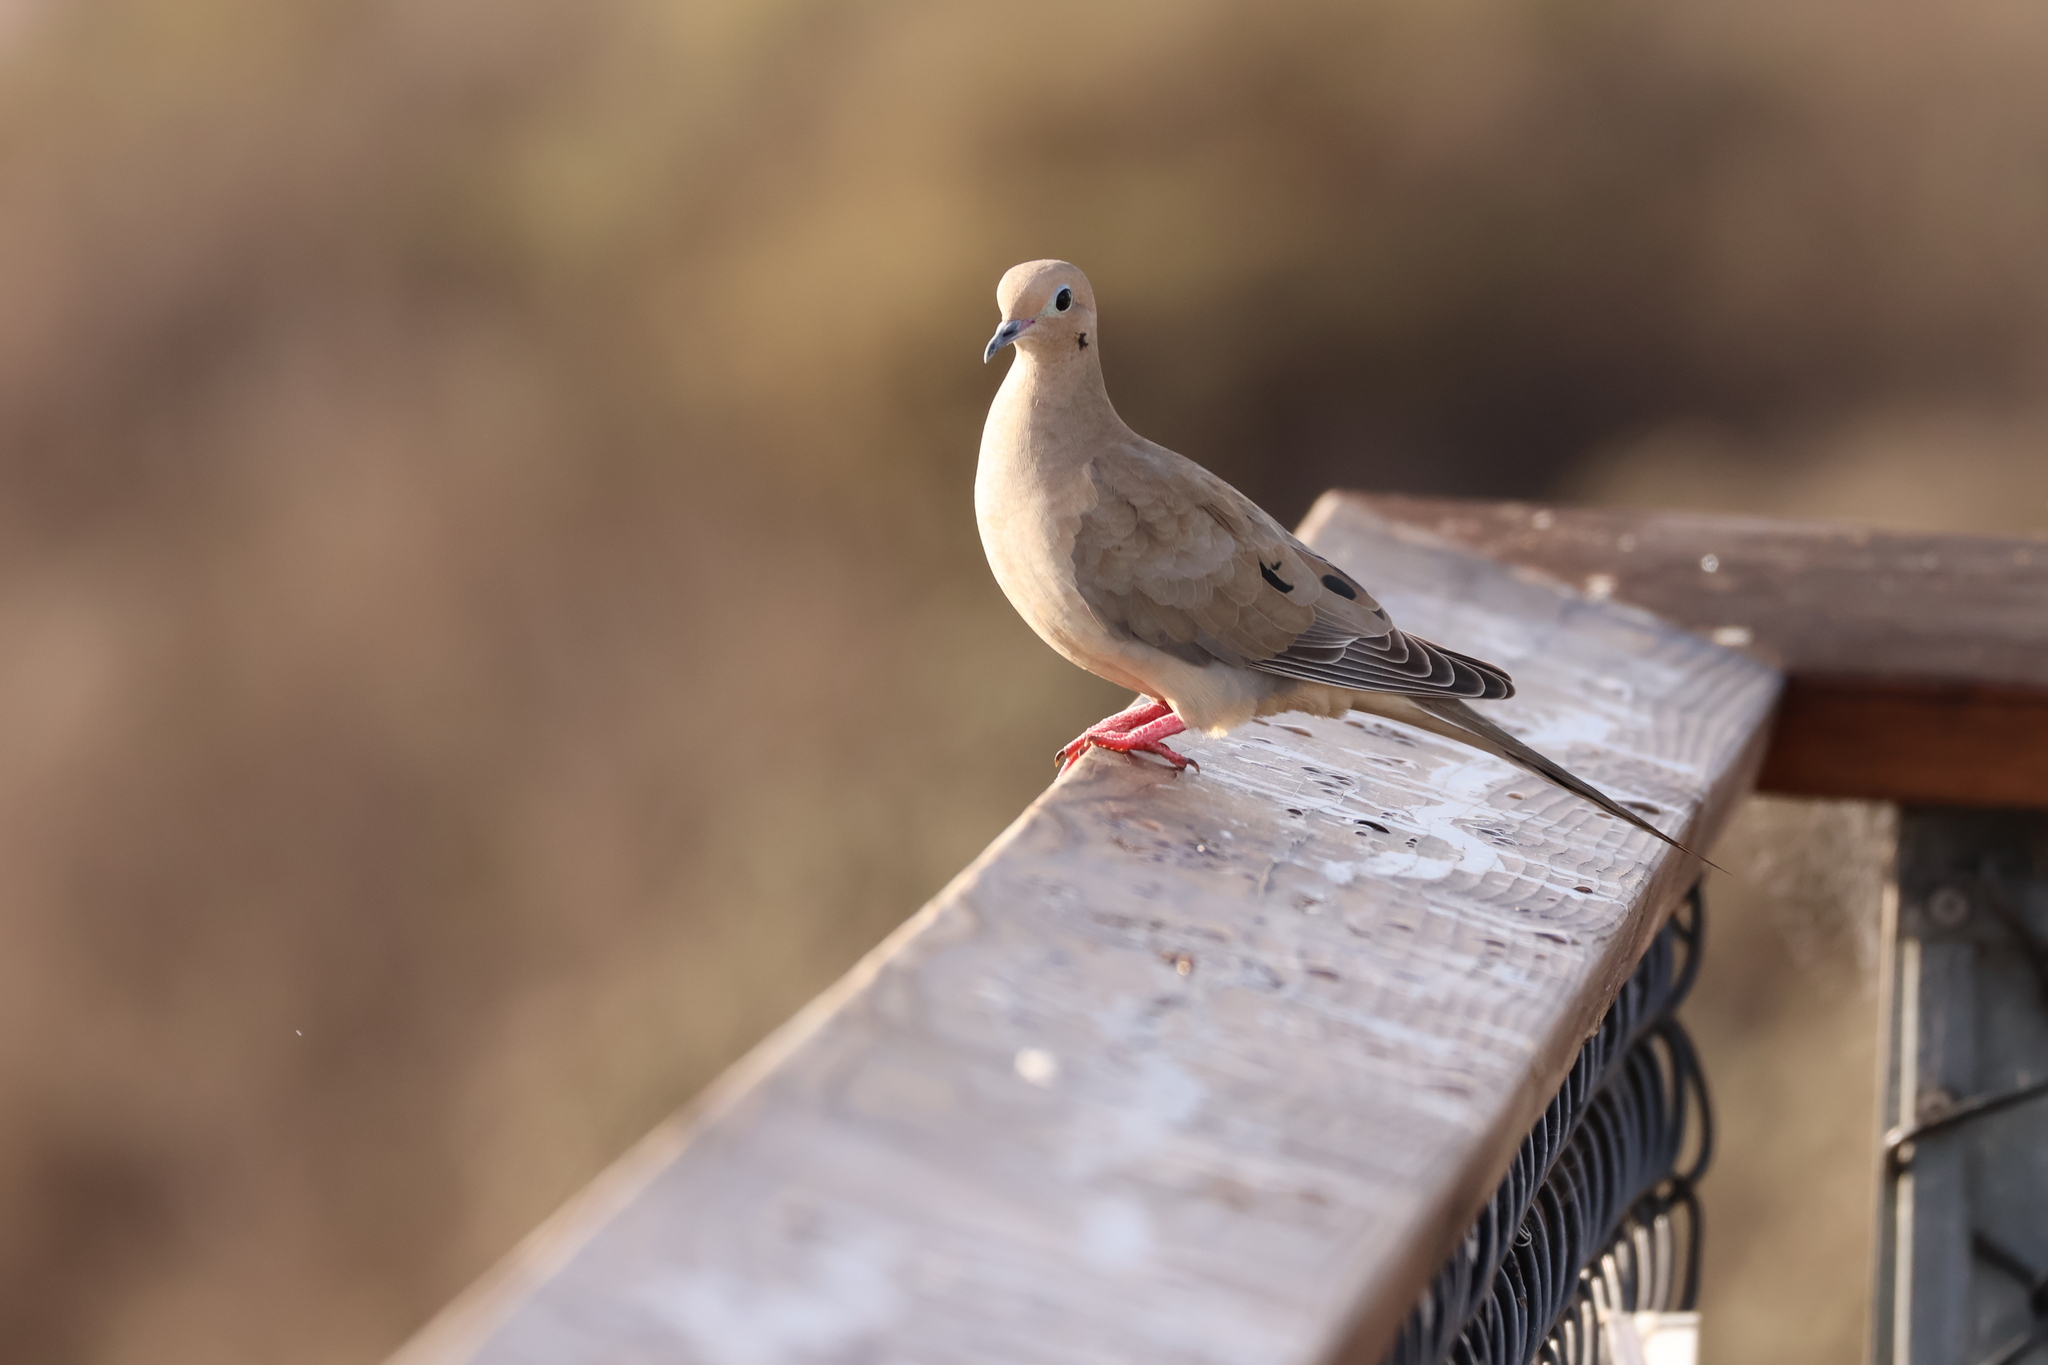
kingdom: Animalia
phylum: Chordata
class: Aves
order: Columbiformes
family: Columbidae
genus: Zenaida
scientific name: Zenaida macroura
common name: Mourning dove
